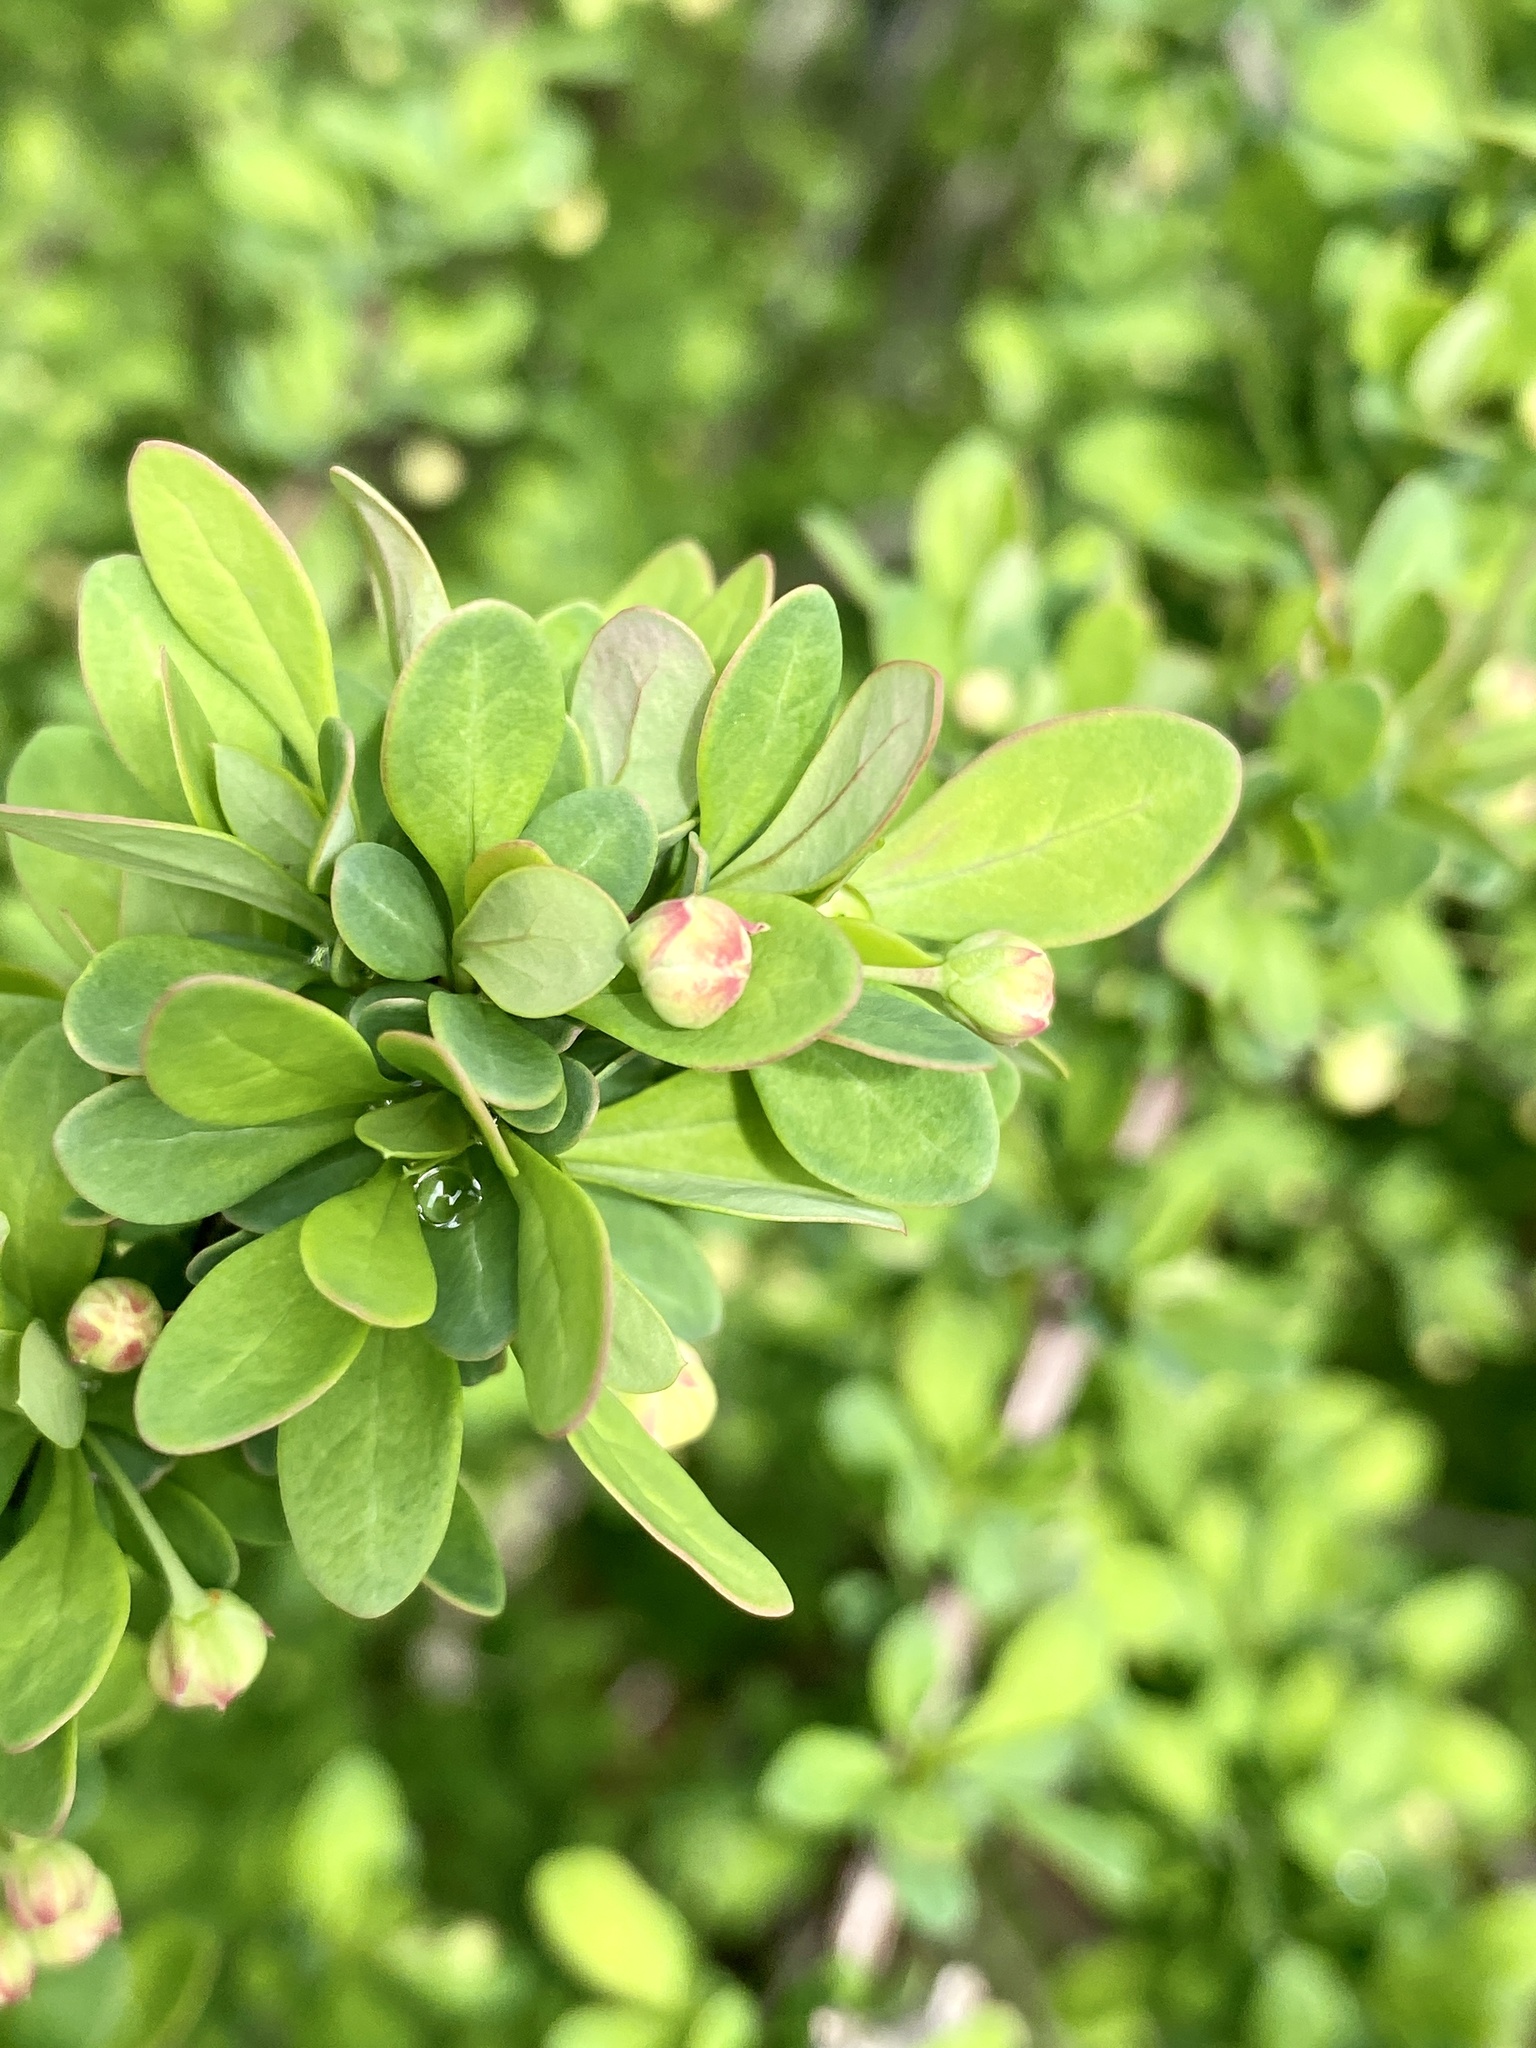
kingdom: Plantae
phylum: Tracheophyta
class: Magnoliopsida
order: Ranunculales
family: Berberidaceae
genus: Berberis
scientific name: Berberis thunbergii
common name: Japanese barberry
